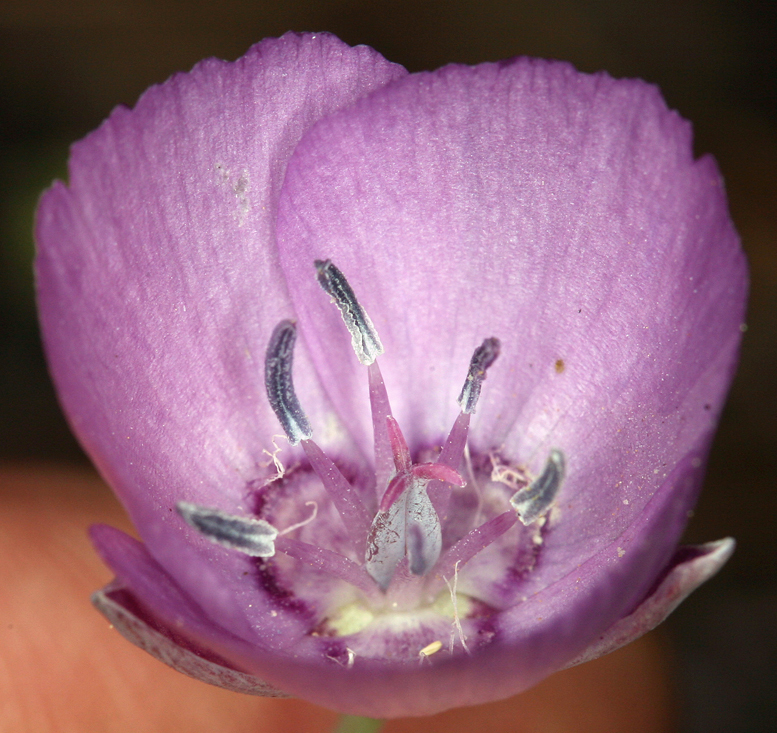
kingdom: Plantae
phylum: Tracheophyta
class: Liliopsida
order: Liliales
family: Liliaceae
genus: Calochortus
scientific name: Calochortus nudus
